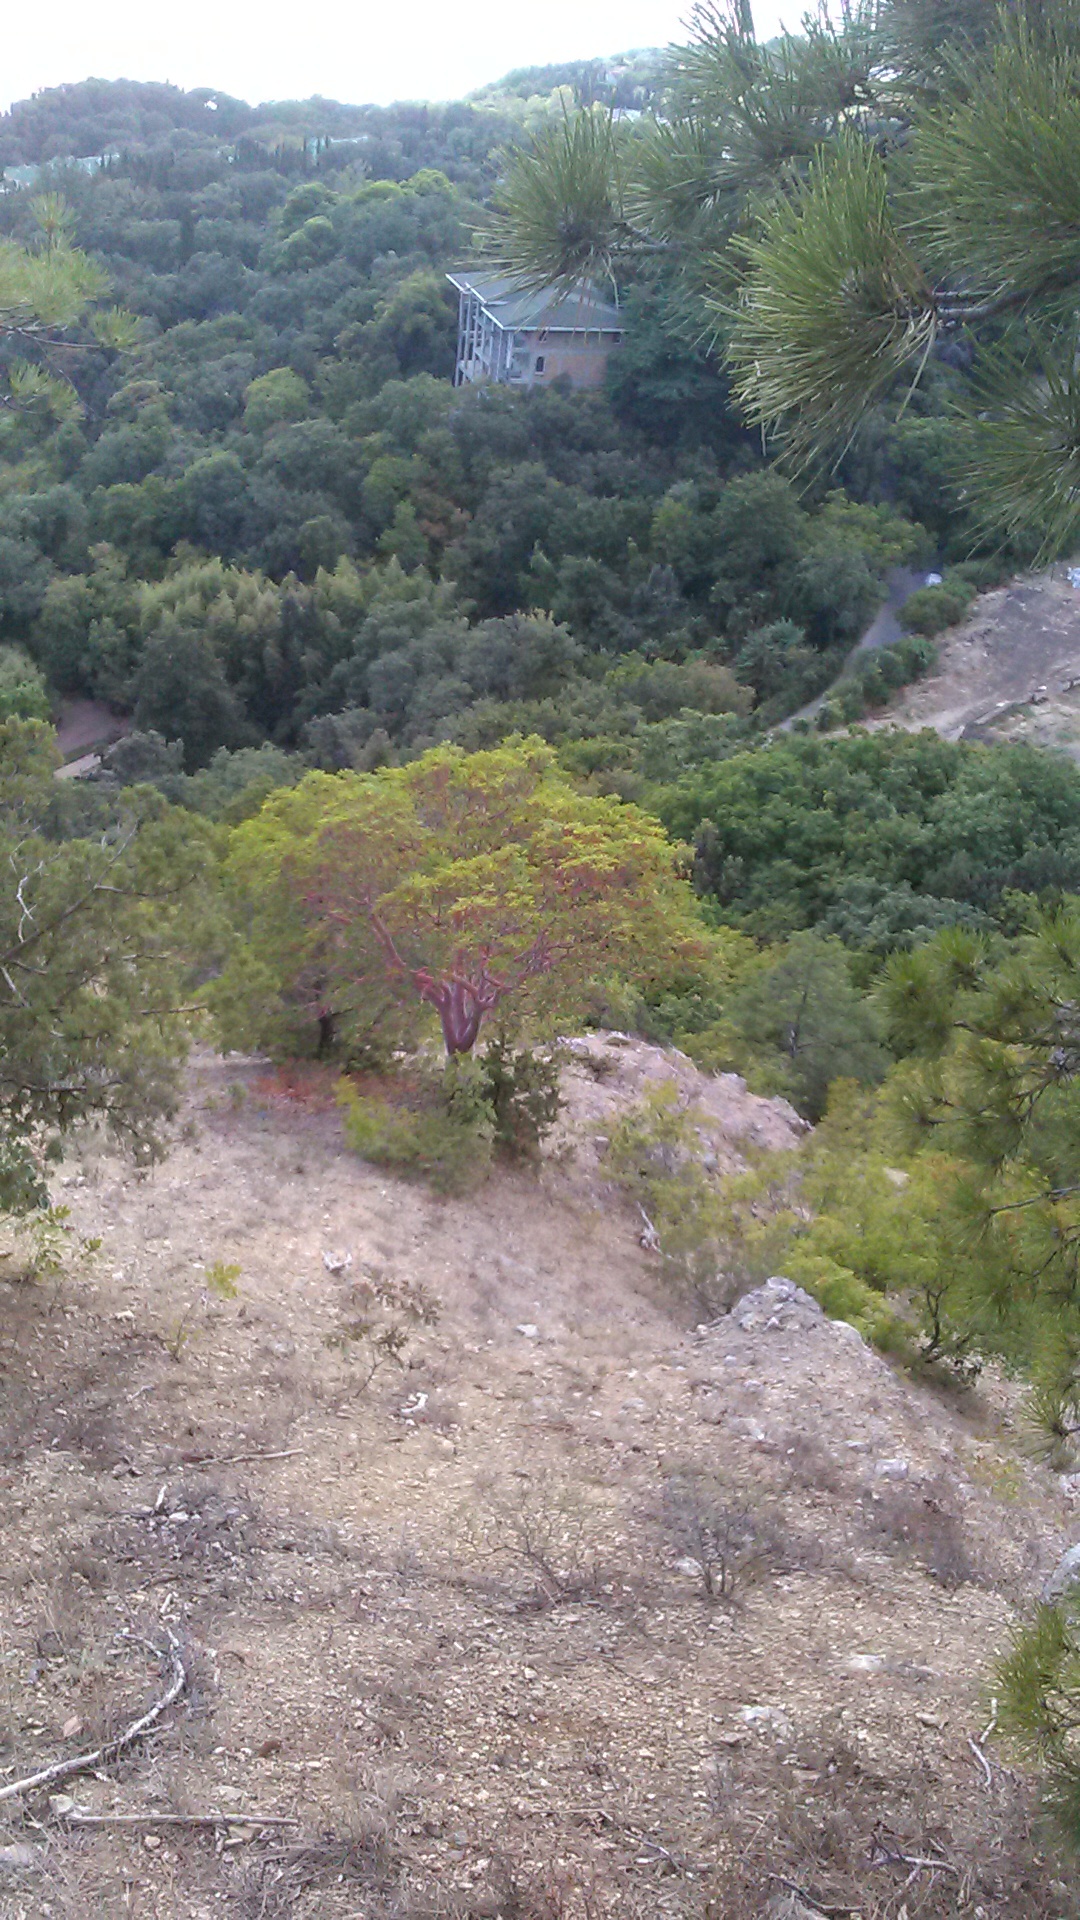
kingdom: Plantae
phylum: Tracheophyta
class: Magnoliopsida
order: Ericales
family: Ericaceae
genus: Arbutus
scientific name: Arbutus andrachne
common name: Greek strawberry tree
